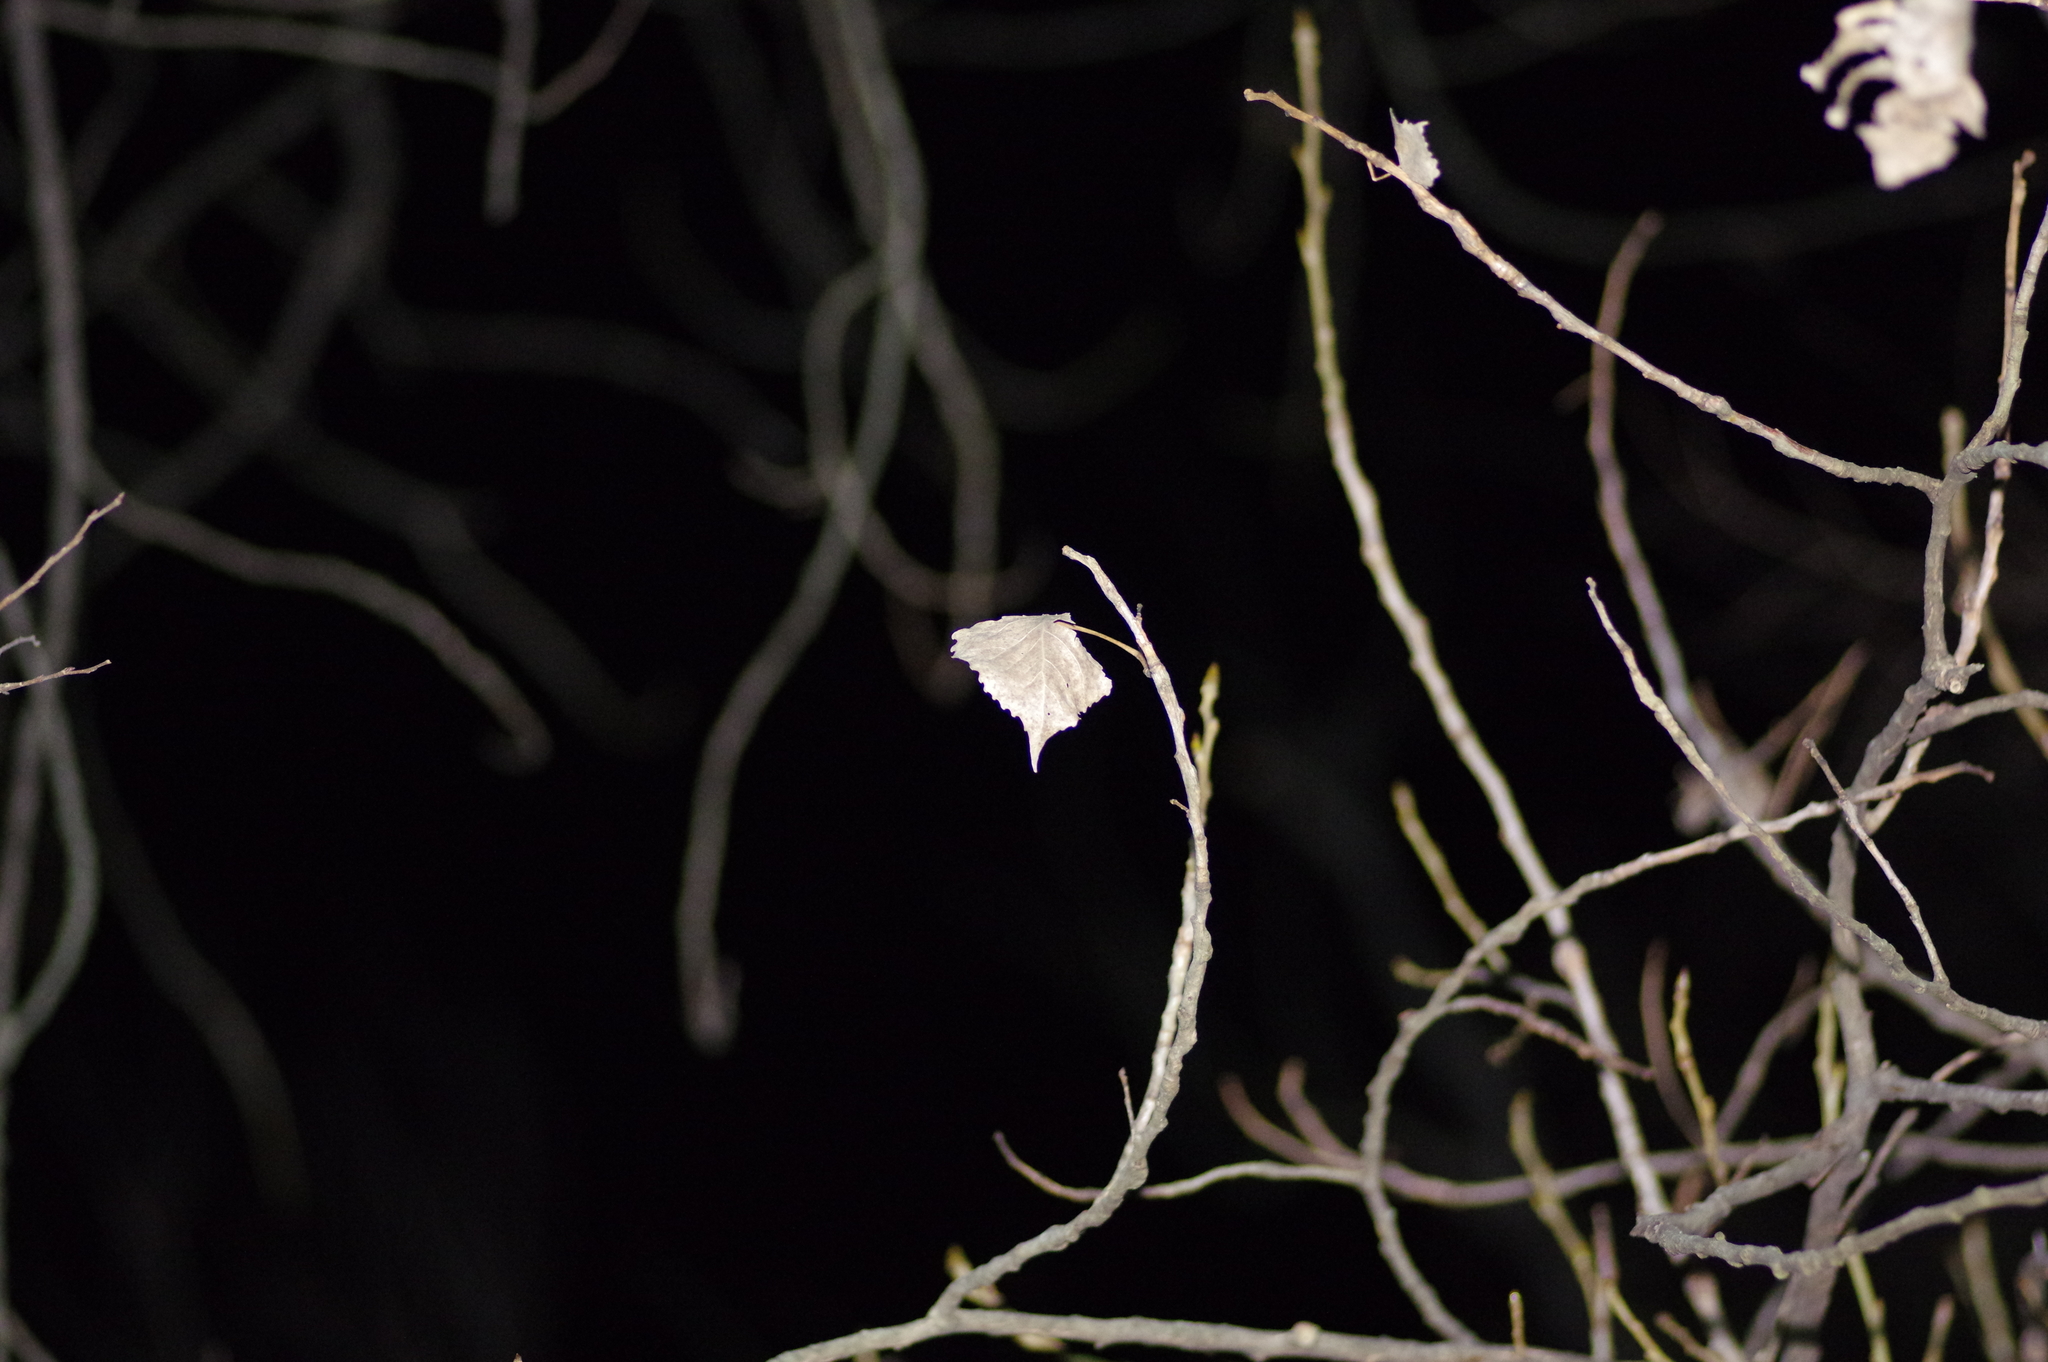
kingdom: Plantae
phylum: Tracheophyta
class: Magnoliopsida
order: Malpighiales
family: Salicaceae
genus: Populus
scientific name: Populus deltoides
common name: Eastern cottonwood
